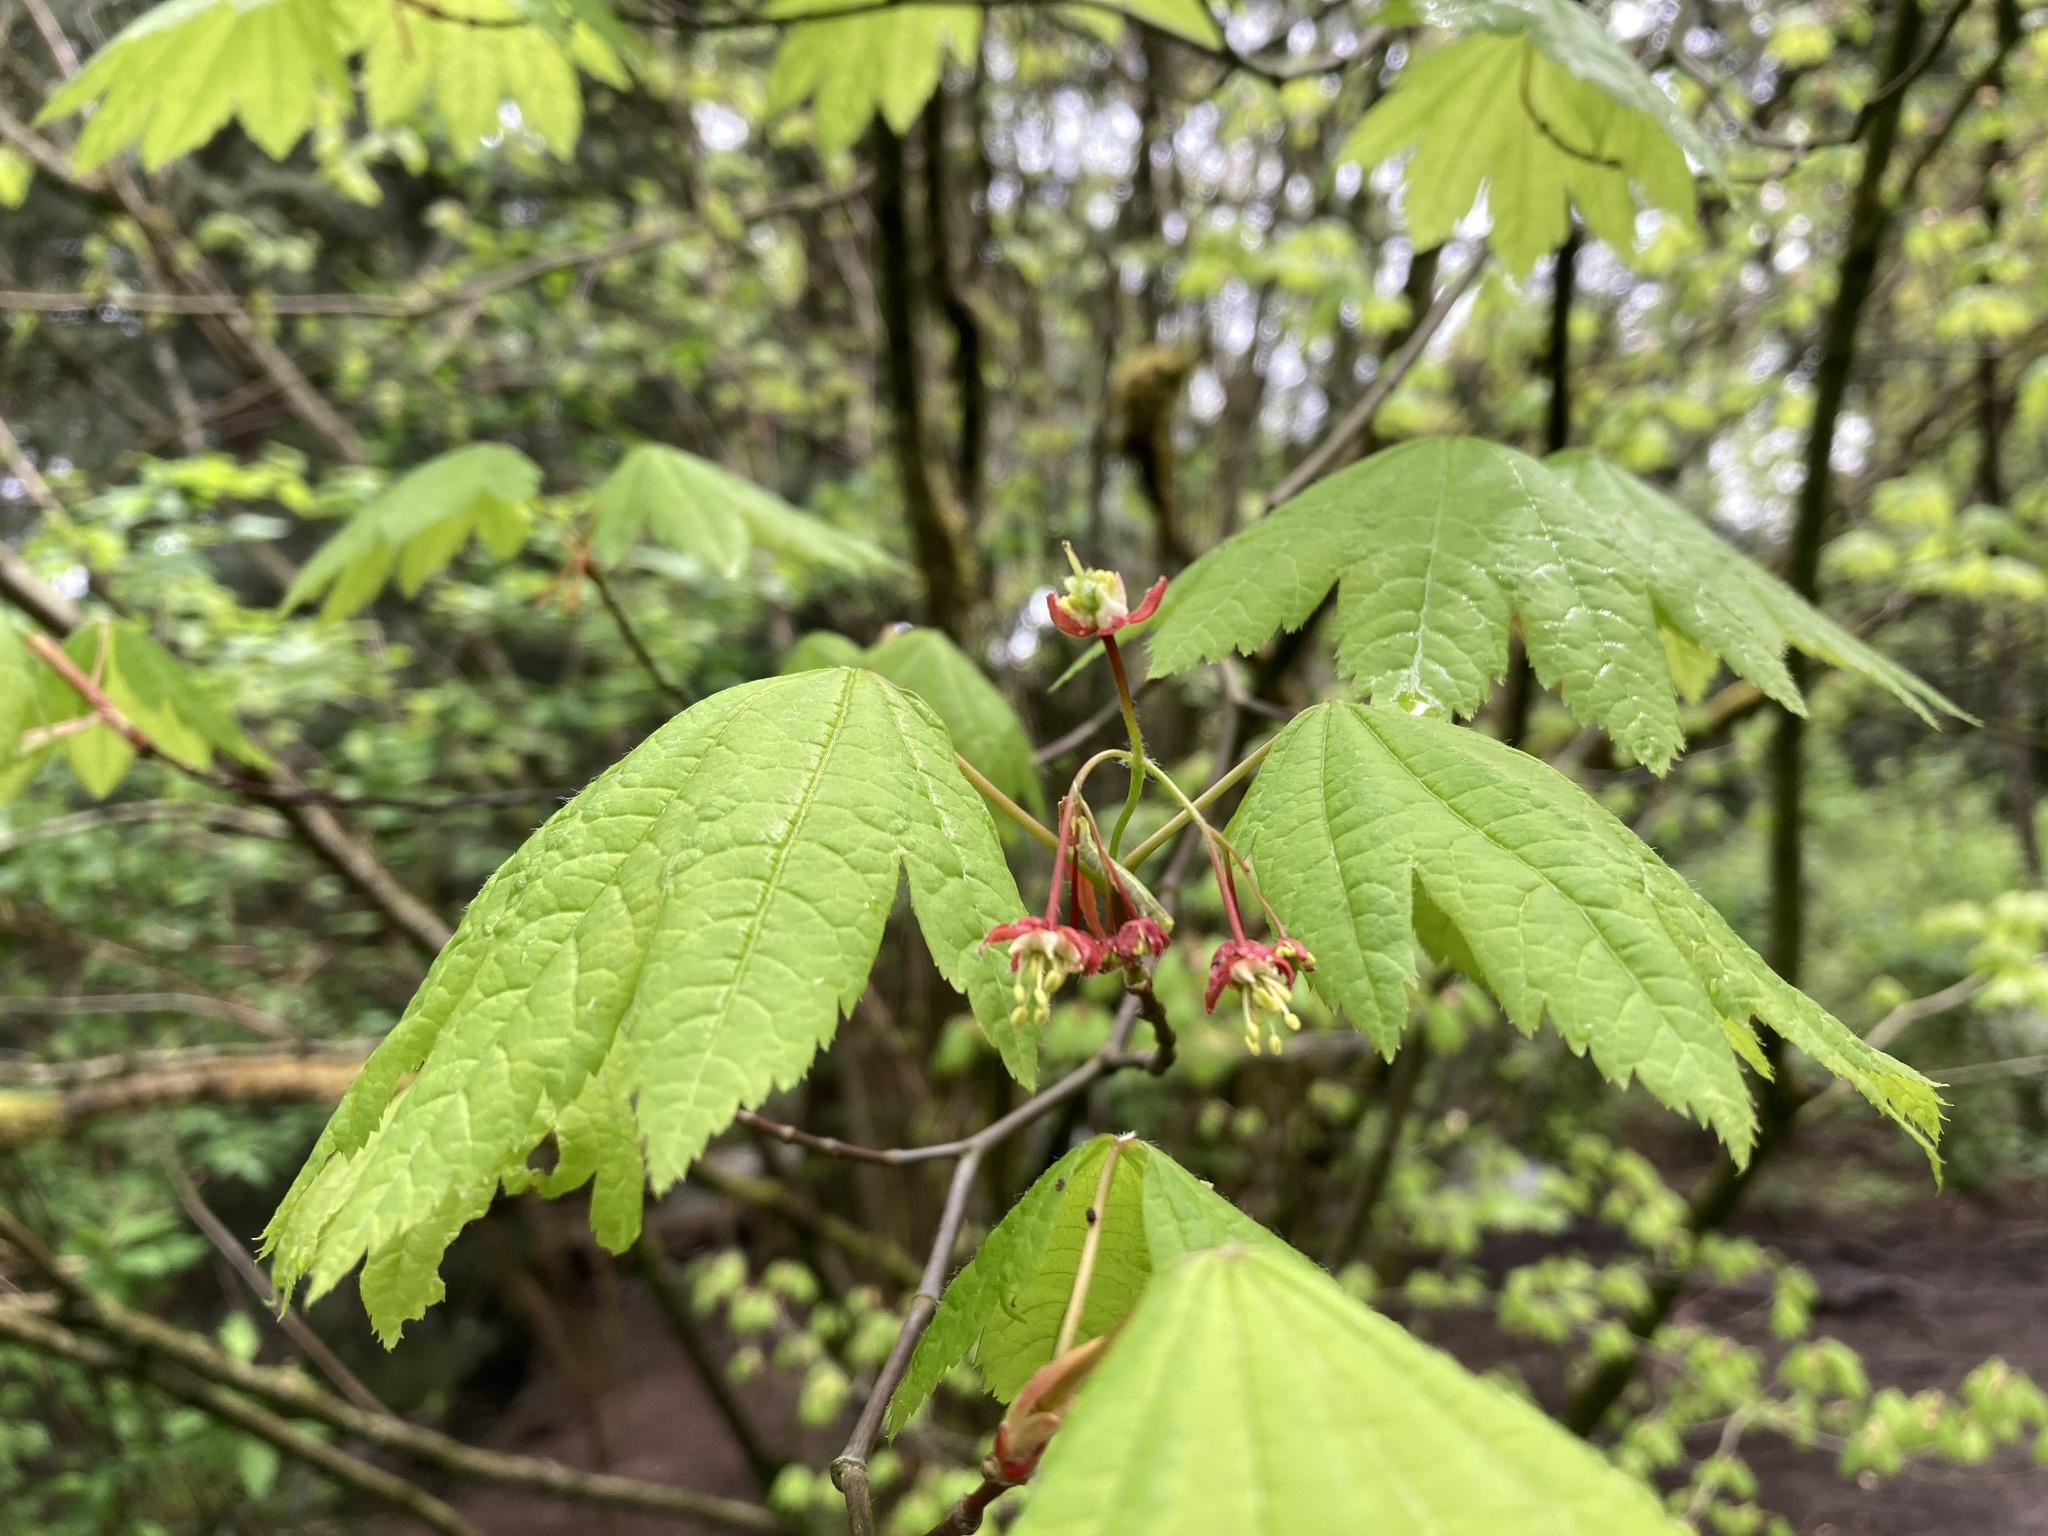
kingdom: Plantae
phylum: Tracheophyta
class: Magnoliopsida
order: Sapindales
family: Sapindaceae
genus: Acer
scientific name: Acer circinatum
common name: Vine maple
